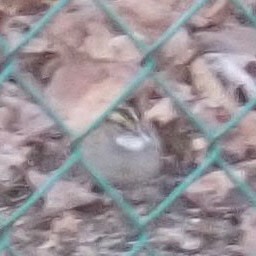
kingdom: Animalia
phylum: Chordata
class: Aves
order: Passeriformes
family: Passerellidae
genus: Zonotrichia
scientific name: Zonotrichia albicollis
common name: White-throated sparrow
